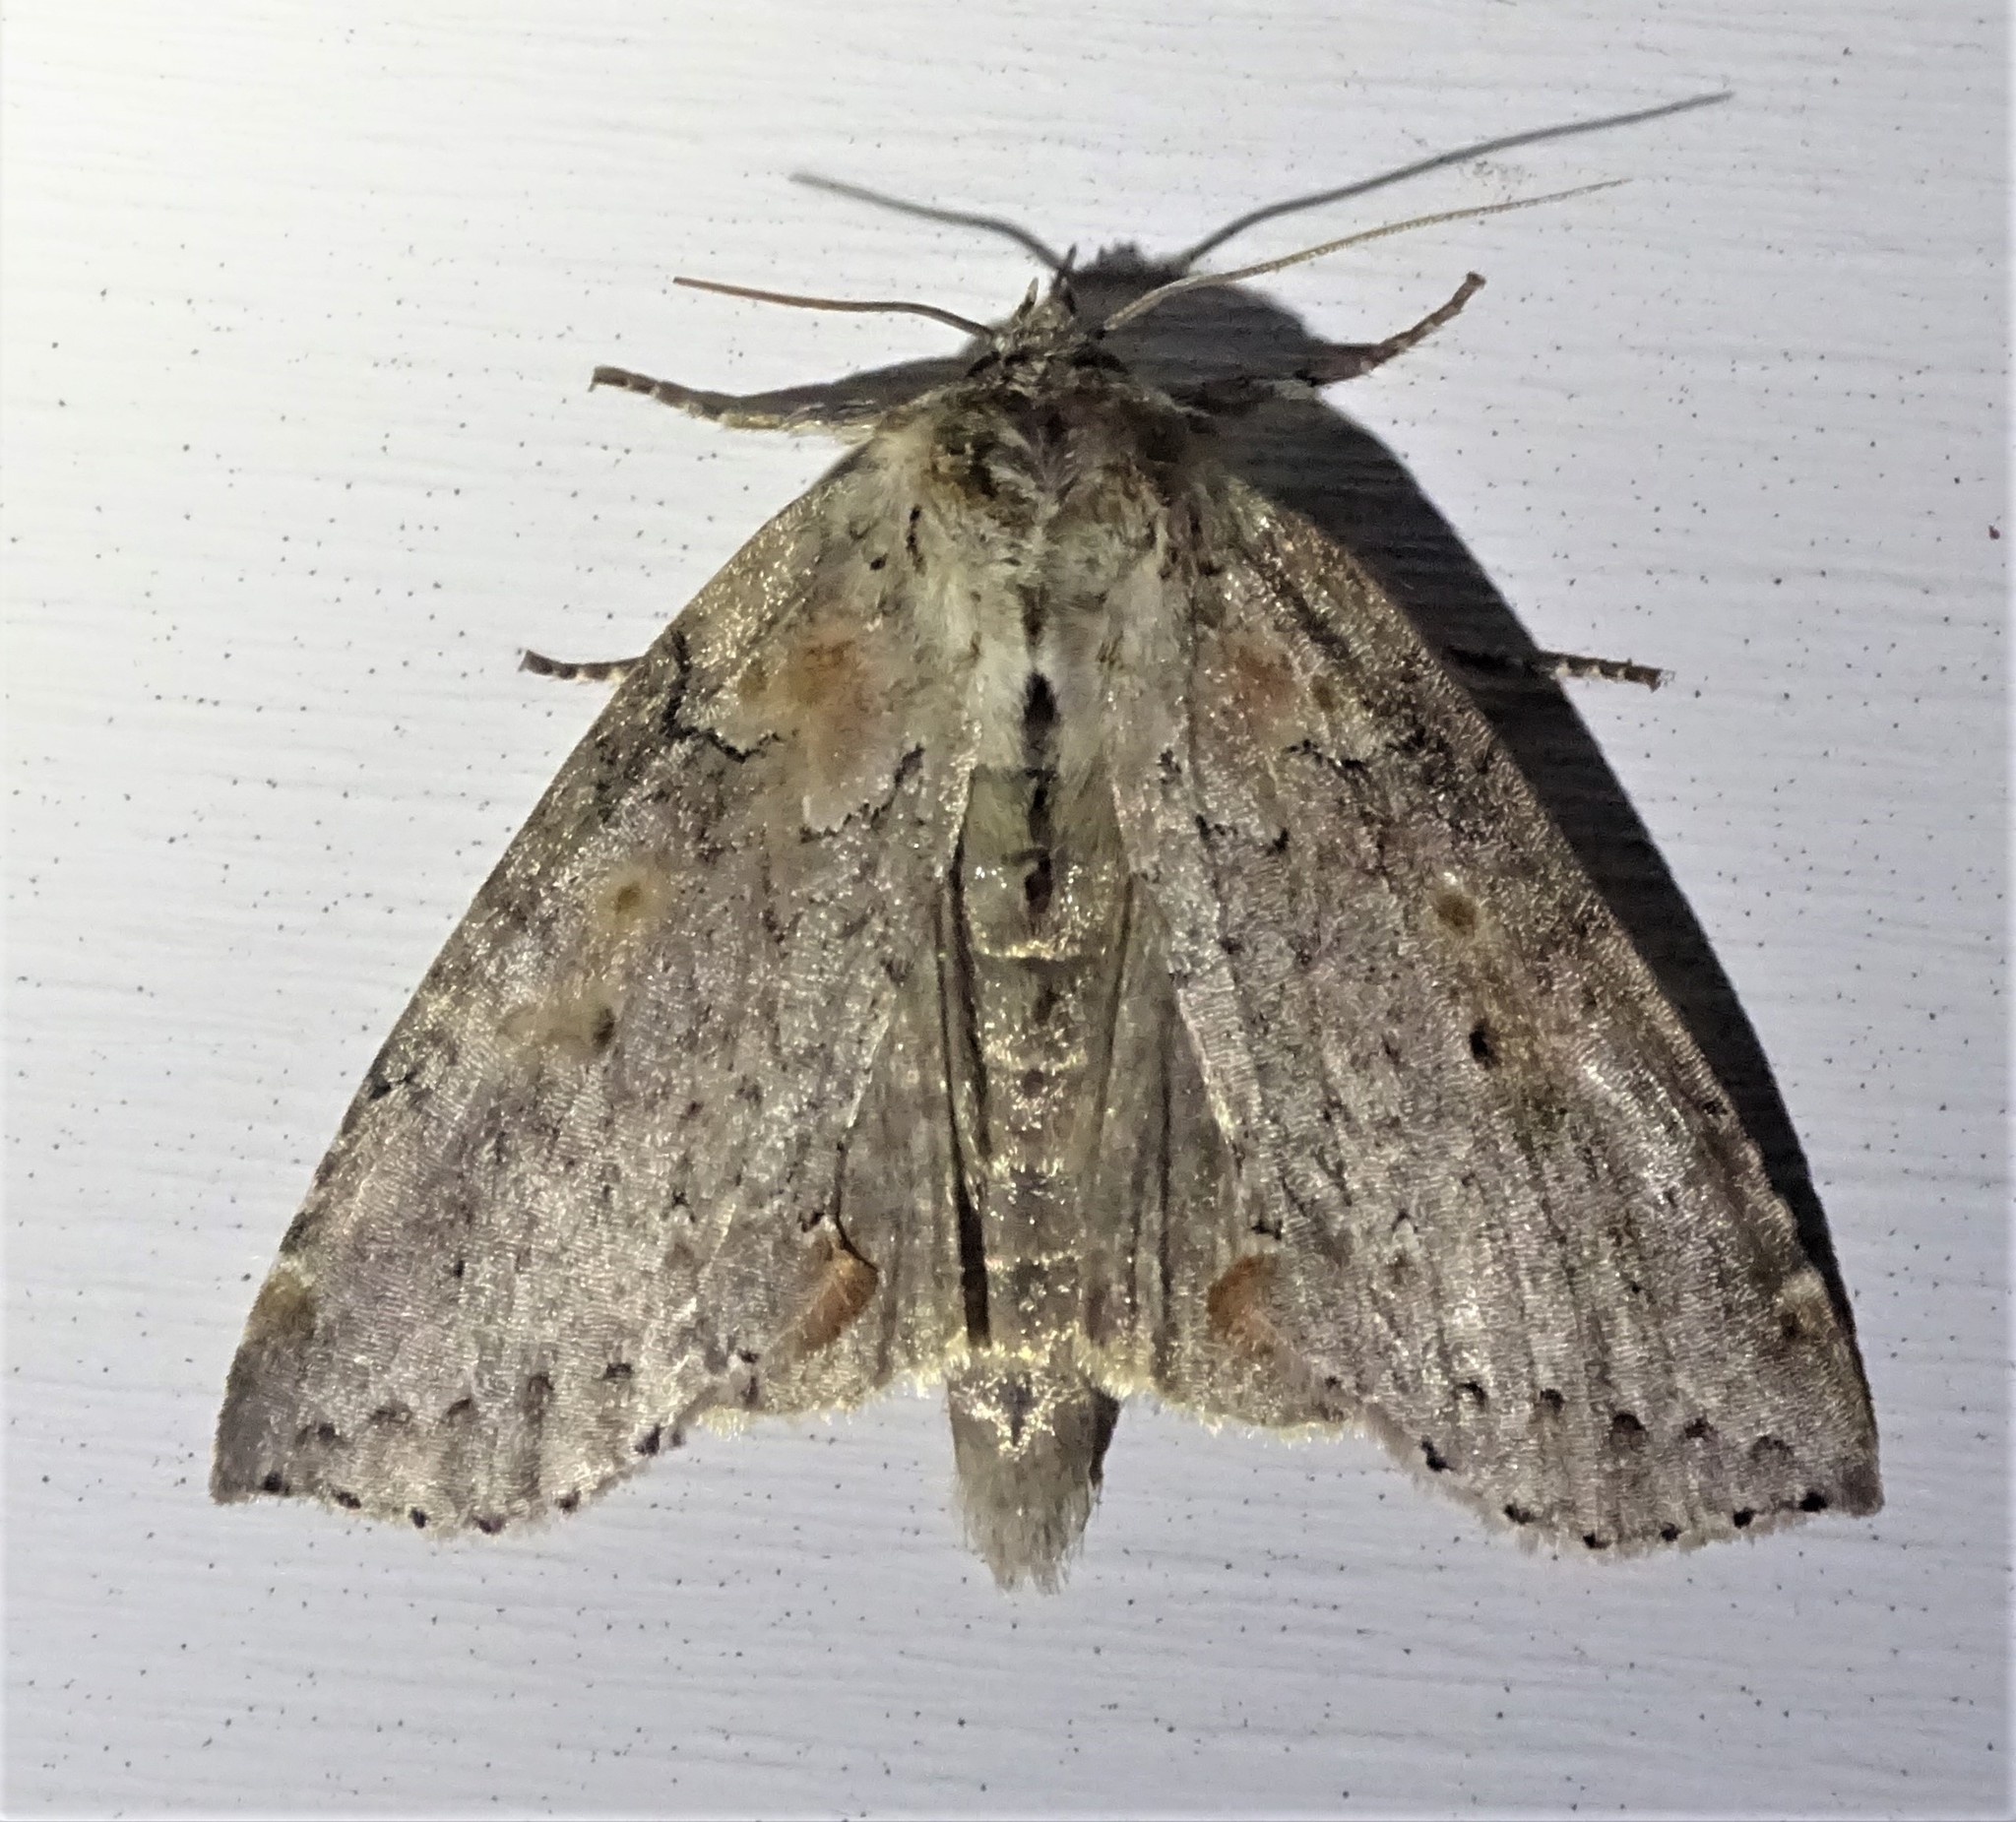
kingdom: Animalia
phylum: Arthropoda
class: Insecta
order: Lepidoptera
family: Drepanidae
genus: Pseudothyatira
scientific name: Pseudothyatira cymatophoroides
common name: Tufted thyatirid moth
